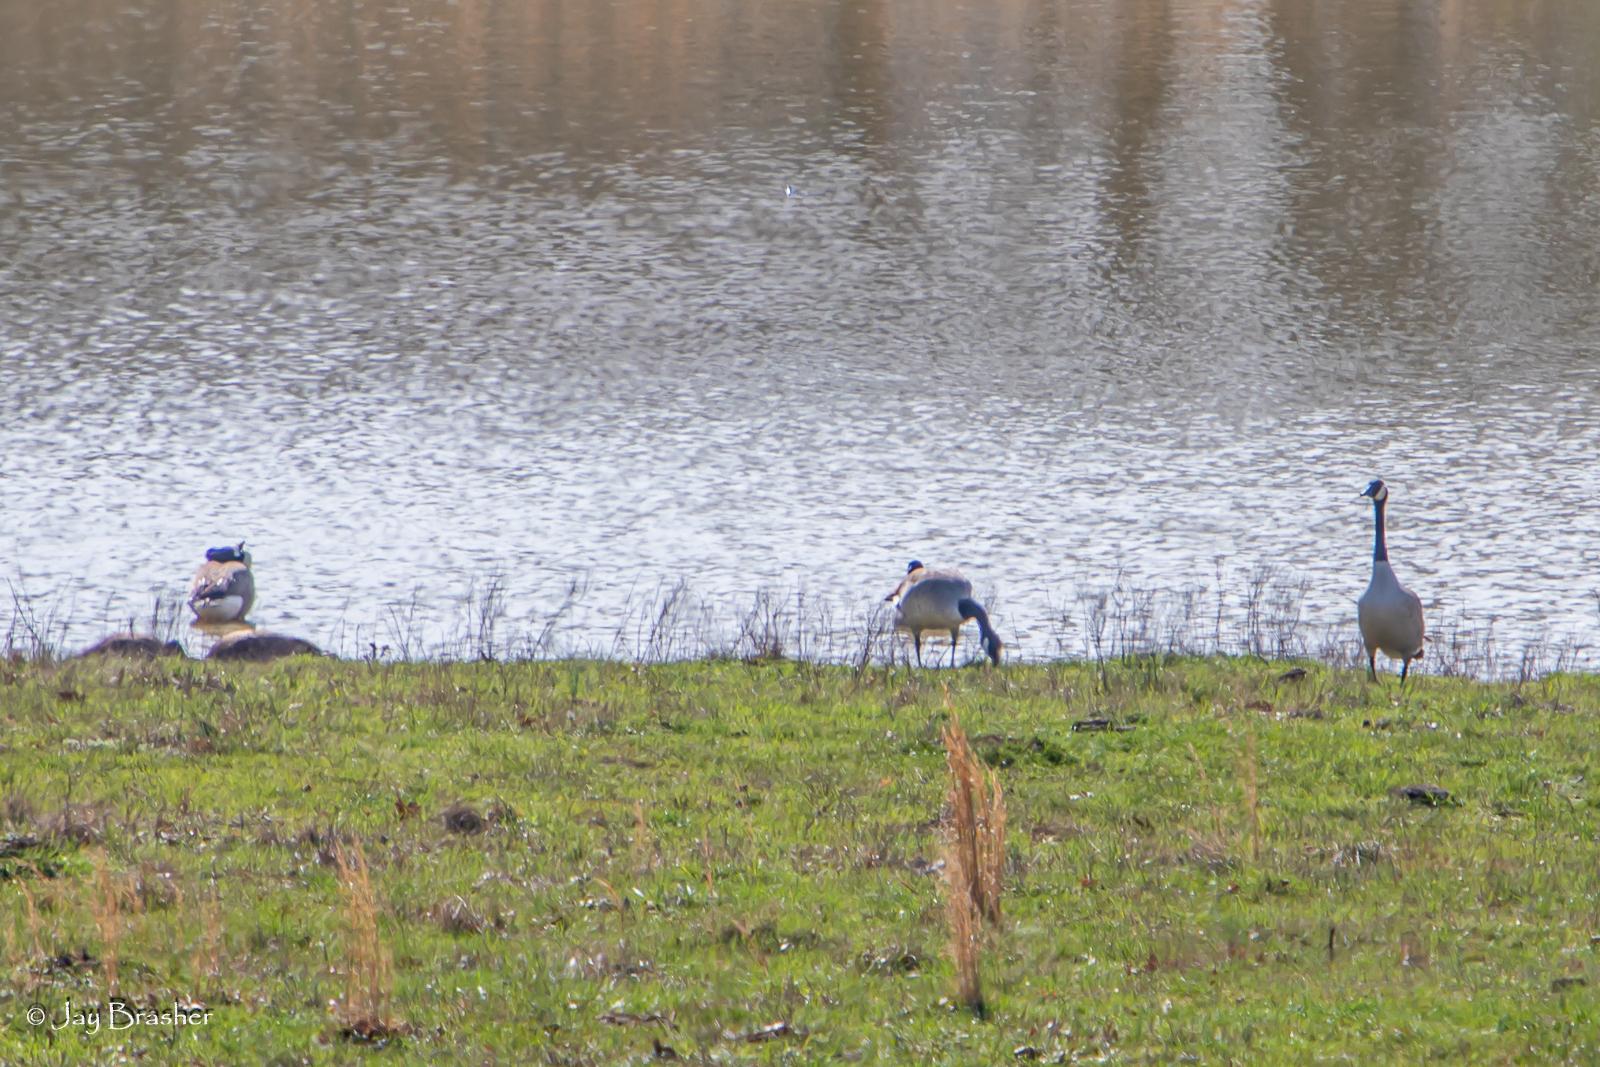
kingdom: Animalia
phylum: Chordata
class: Aves
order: Anseriformes
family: Anatidae
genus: Branta
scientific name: Branta canadensis
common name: Canada goose
